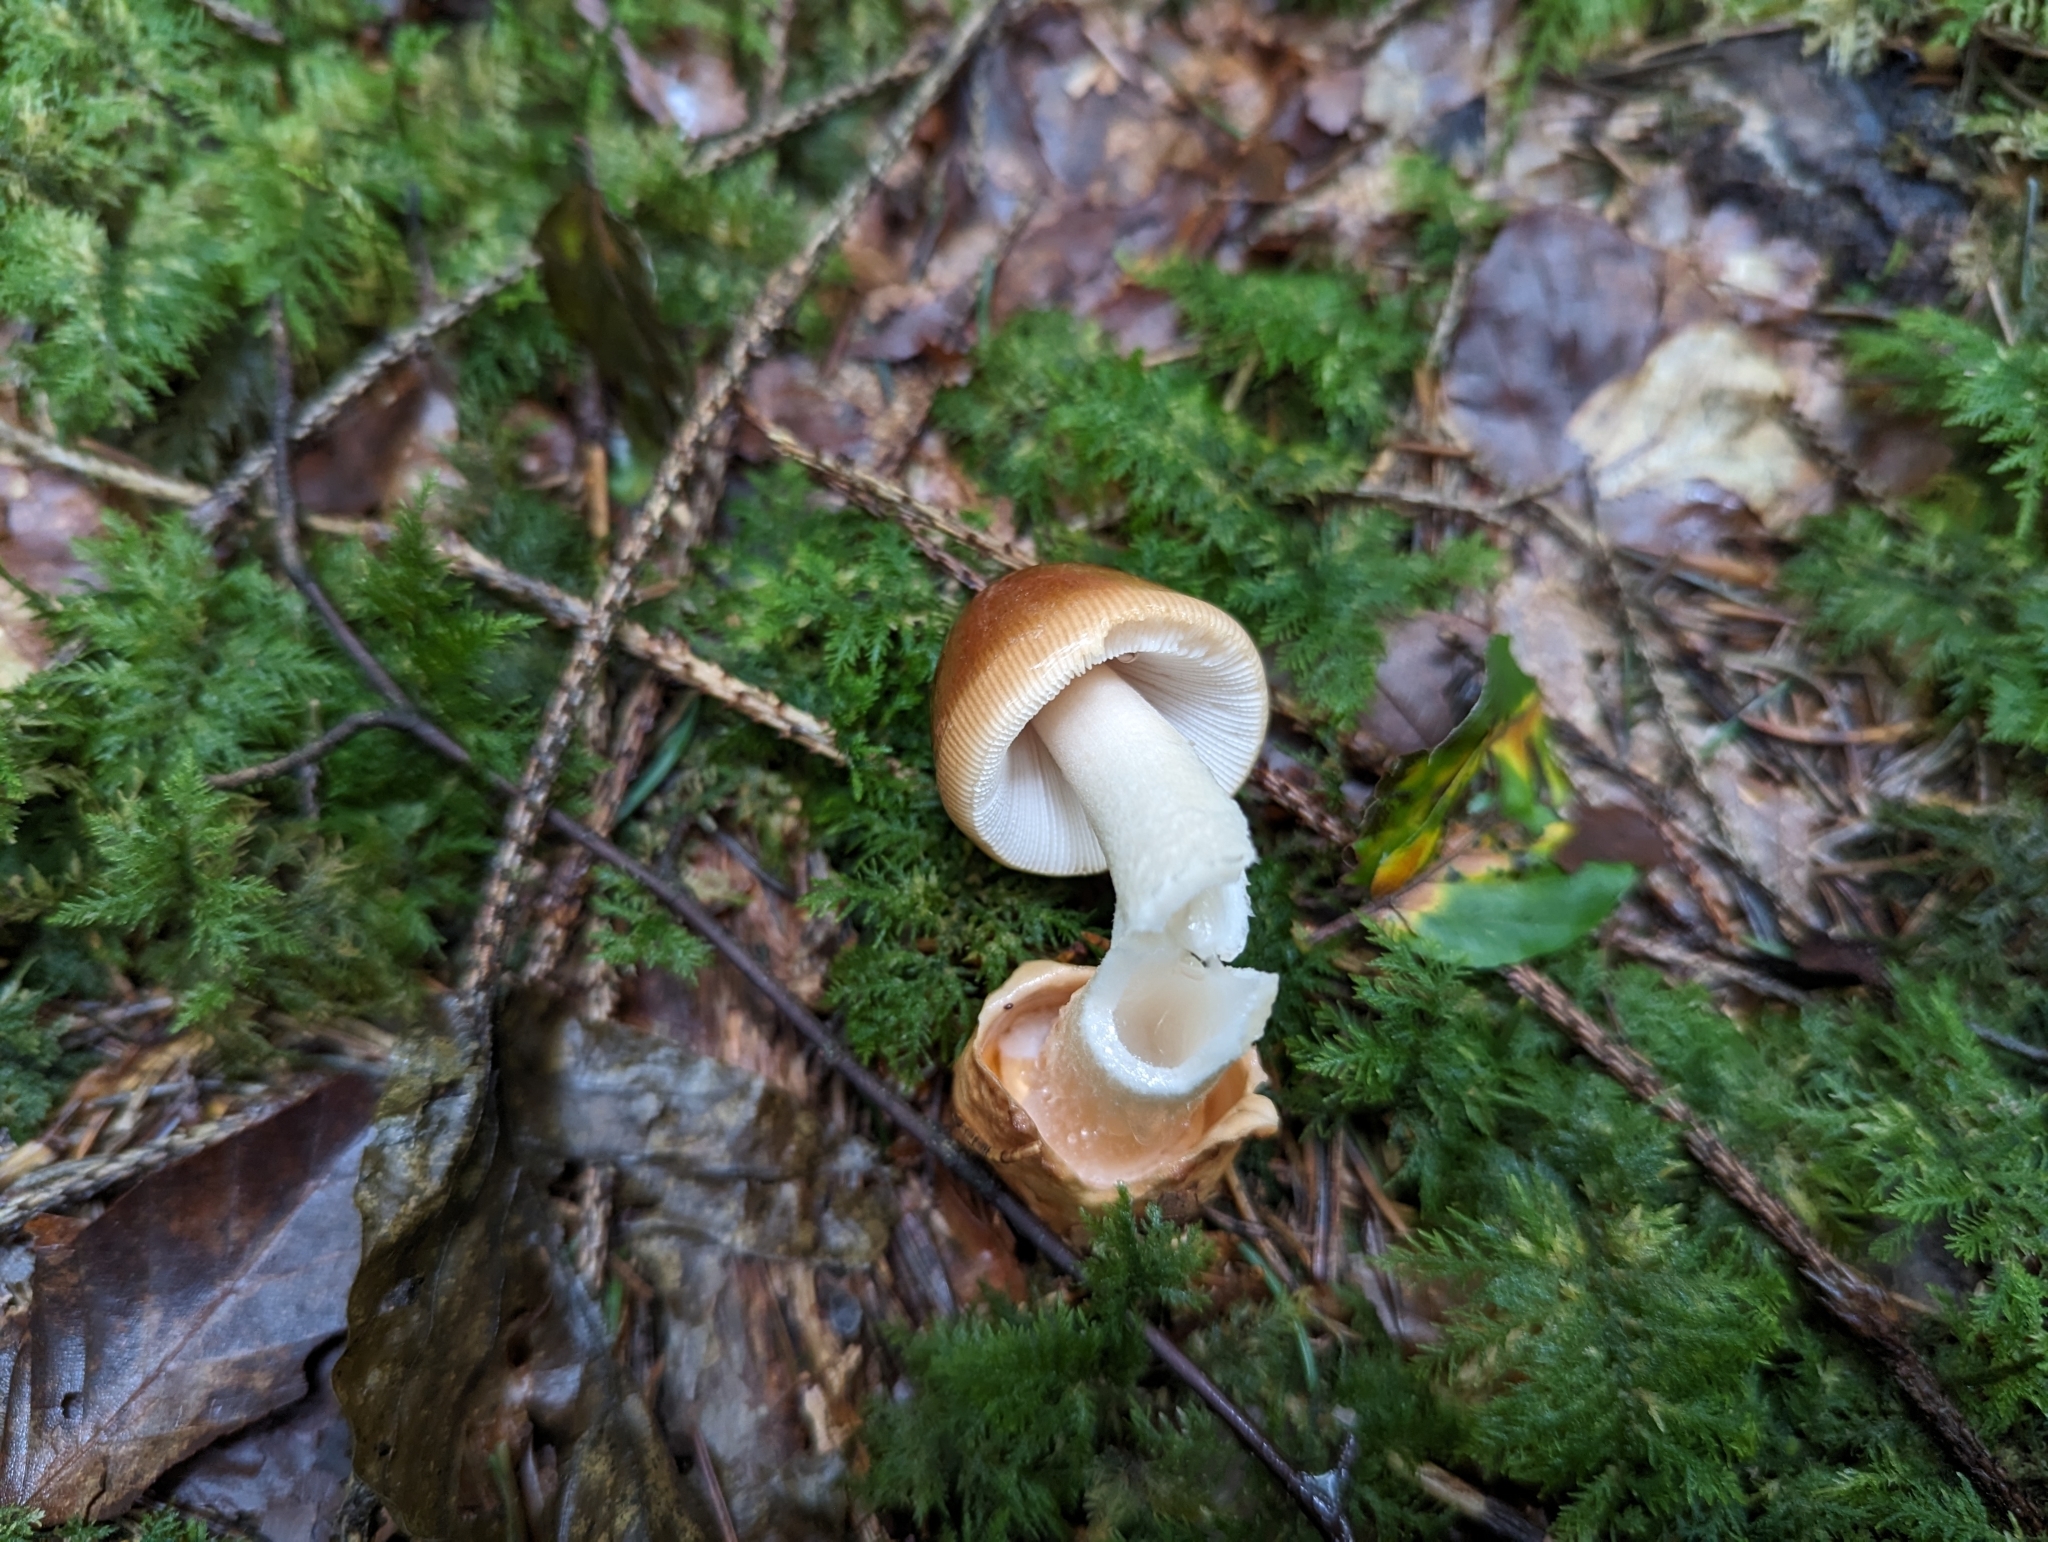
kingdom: Fungi
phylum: Basidiomycota
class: Agaricomycetes
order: Agaricales
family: Amanitaceae
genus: Amanita
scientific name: Amanita fulva
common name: Tawny grisette
